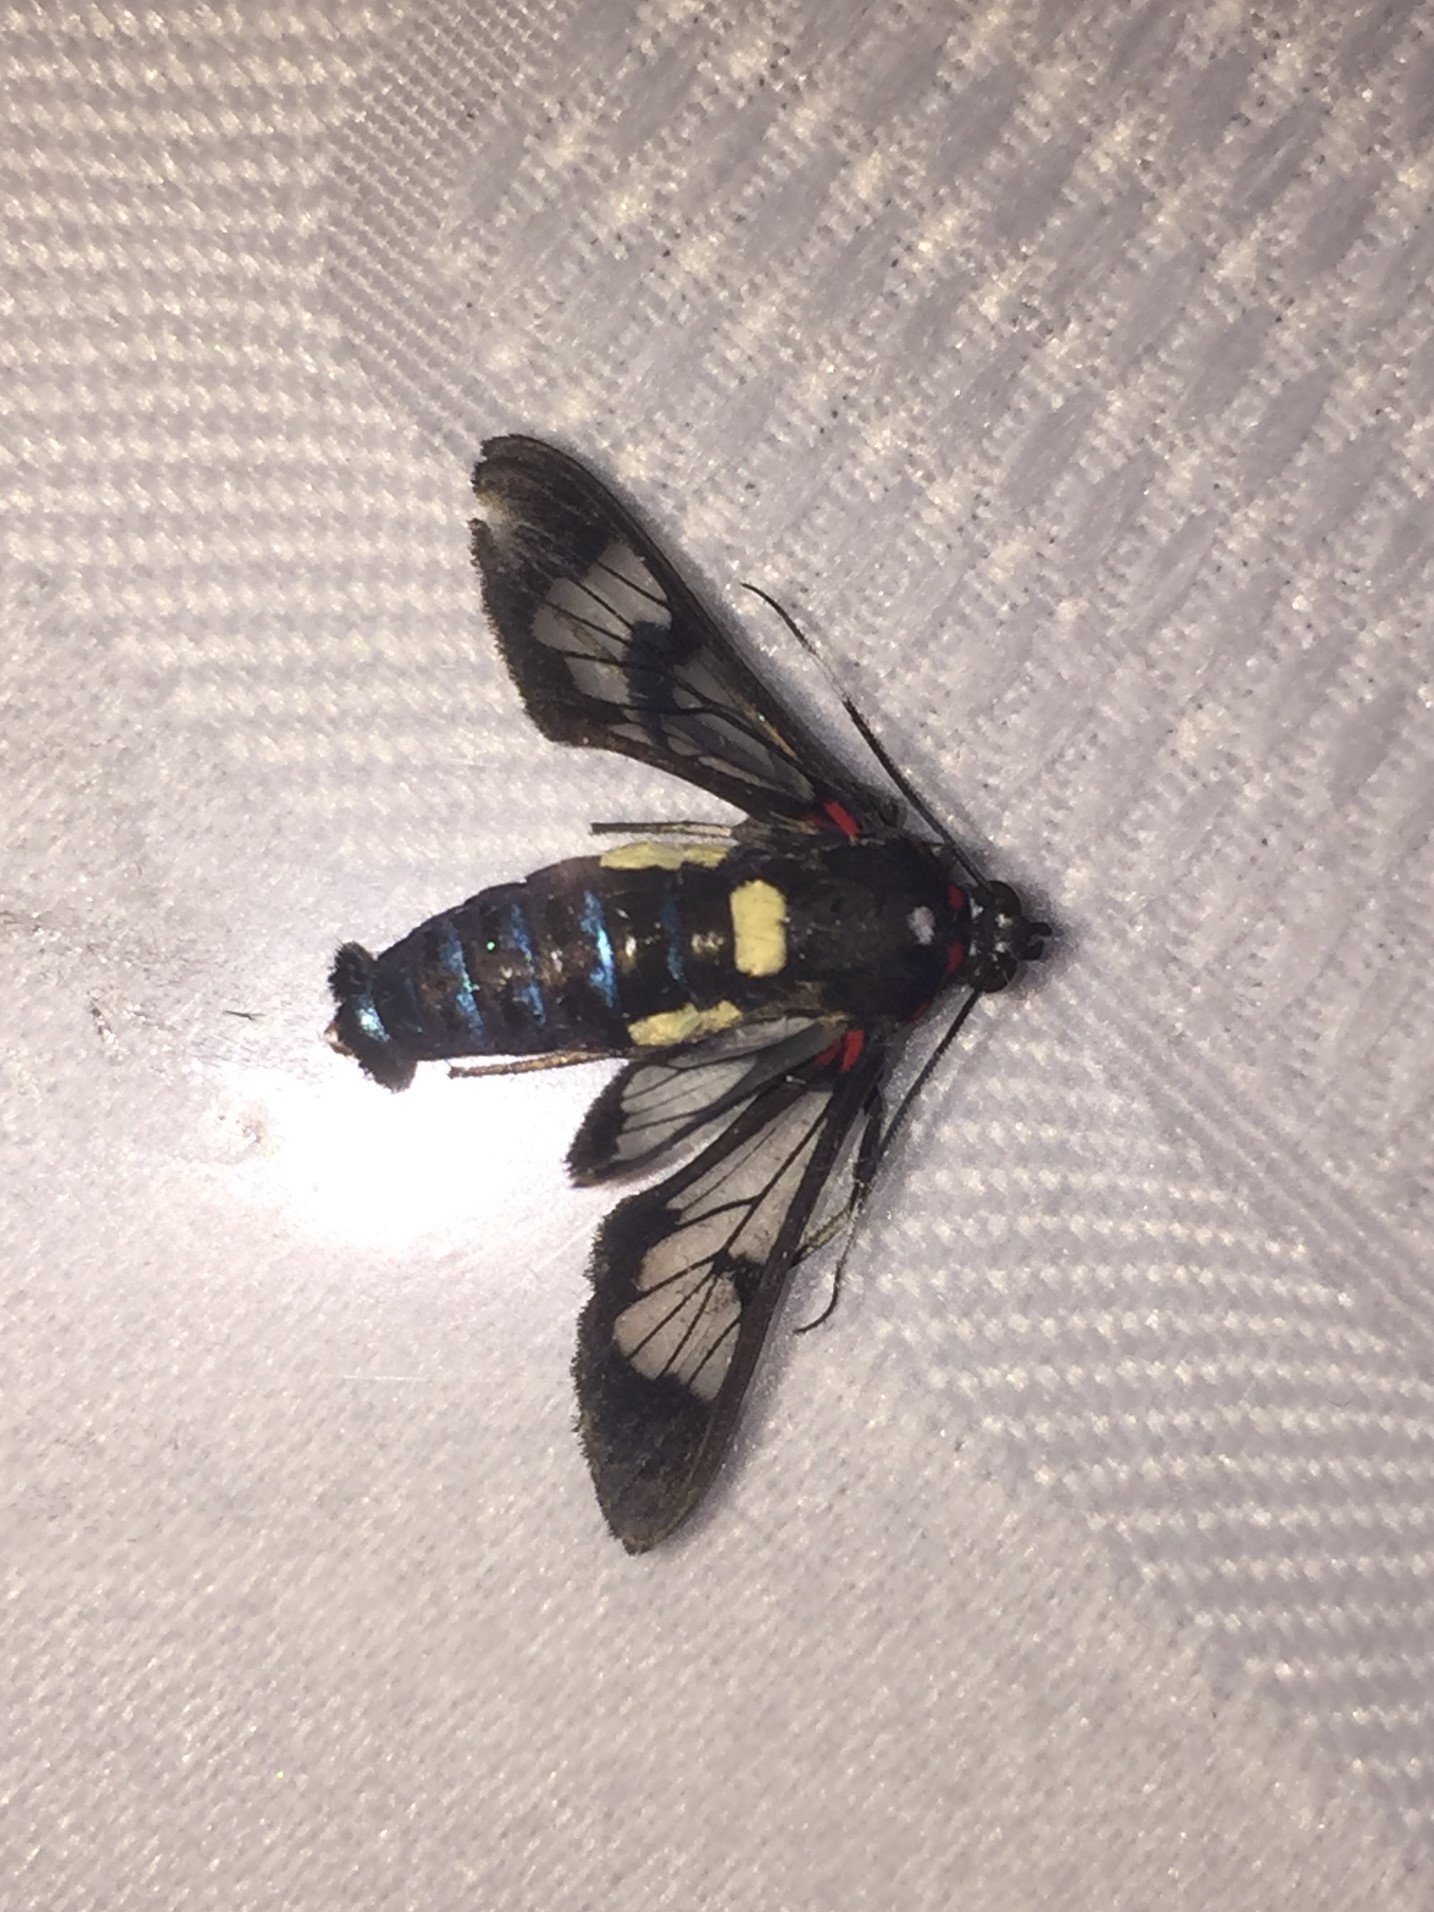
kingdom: Animalia
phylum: Arthropoda
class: Insecta
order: Lepidoptera
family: Erebidae
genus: Pheia
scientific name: Pheia albisigna
